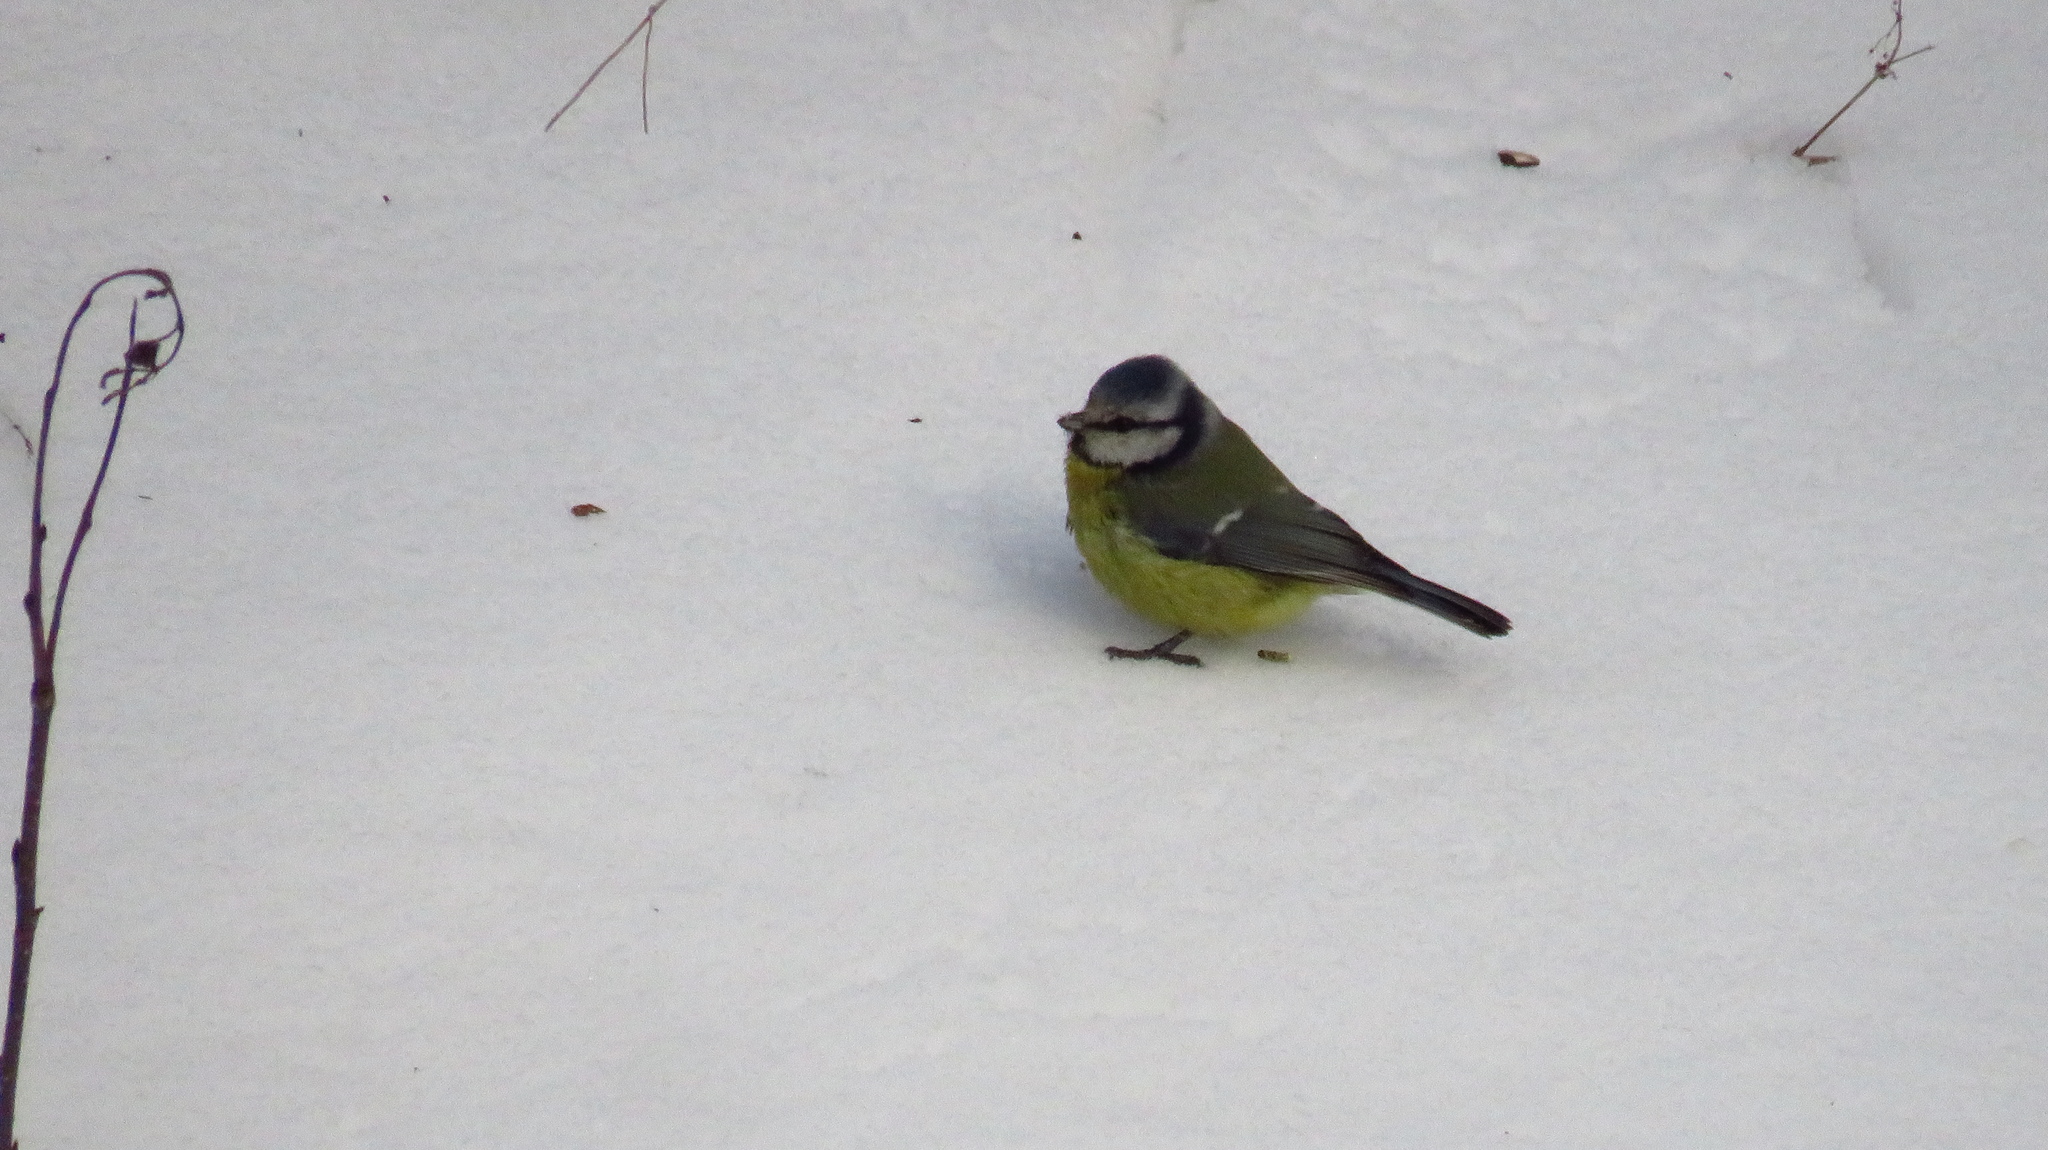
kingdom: Animalia
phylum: Chordata
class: Aves
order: Passeriformes
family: Paridae
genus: Cyanistes
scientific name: Cyanistes caeruleus
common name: Eurasian blue tit
